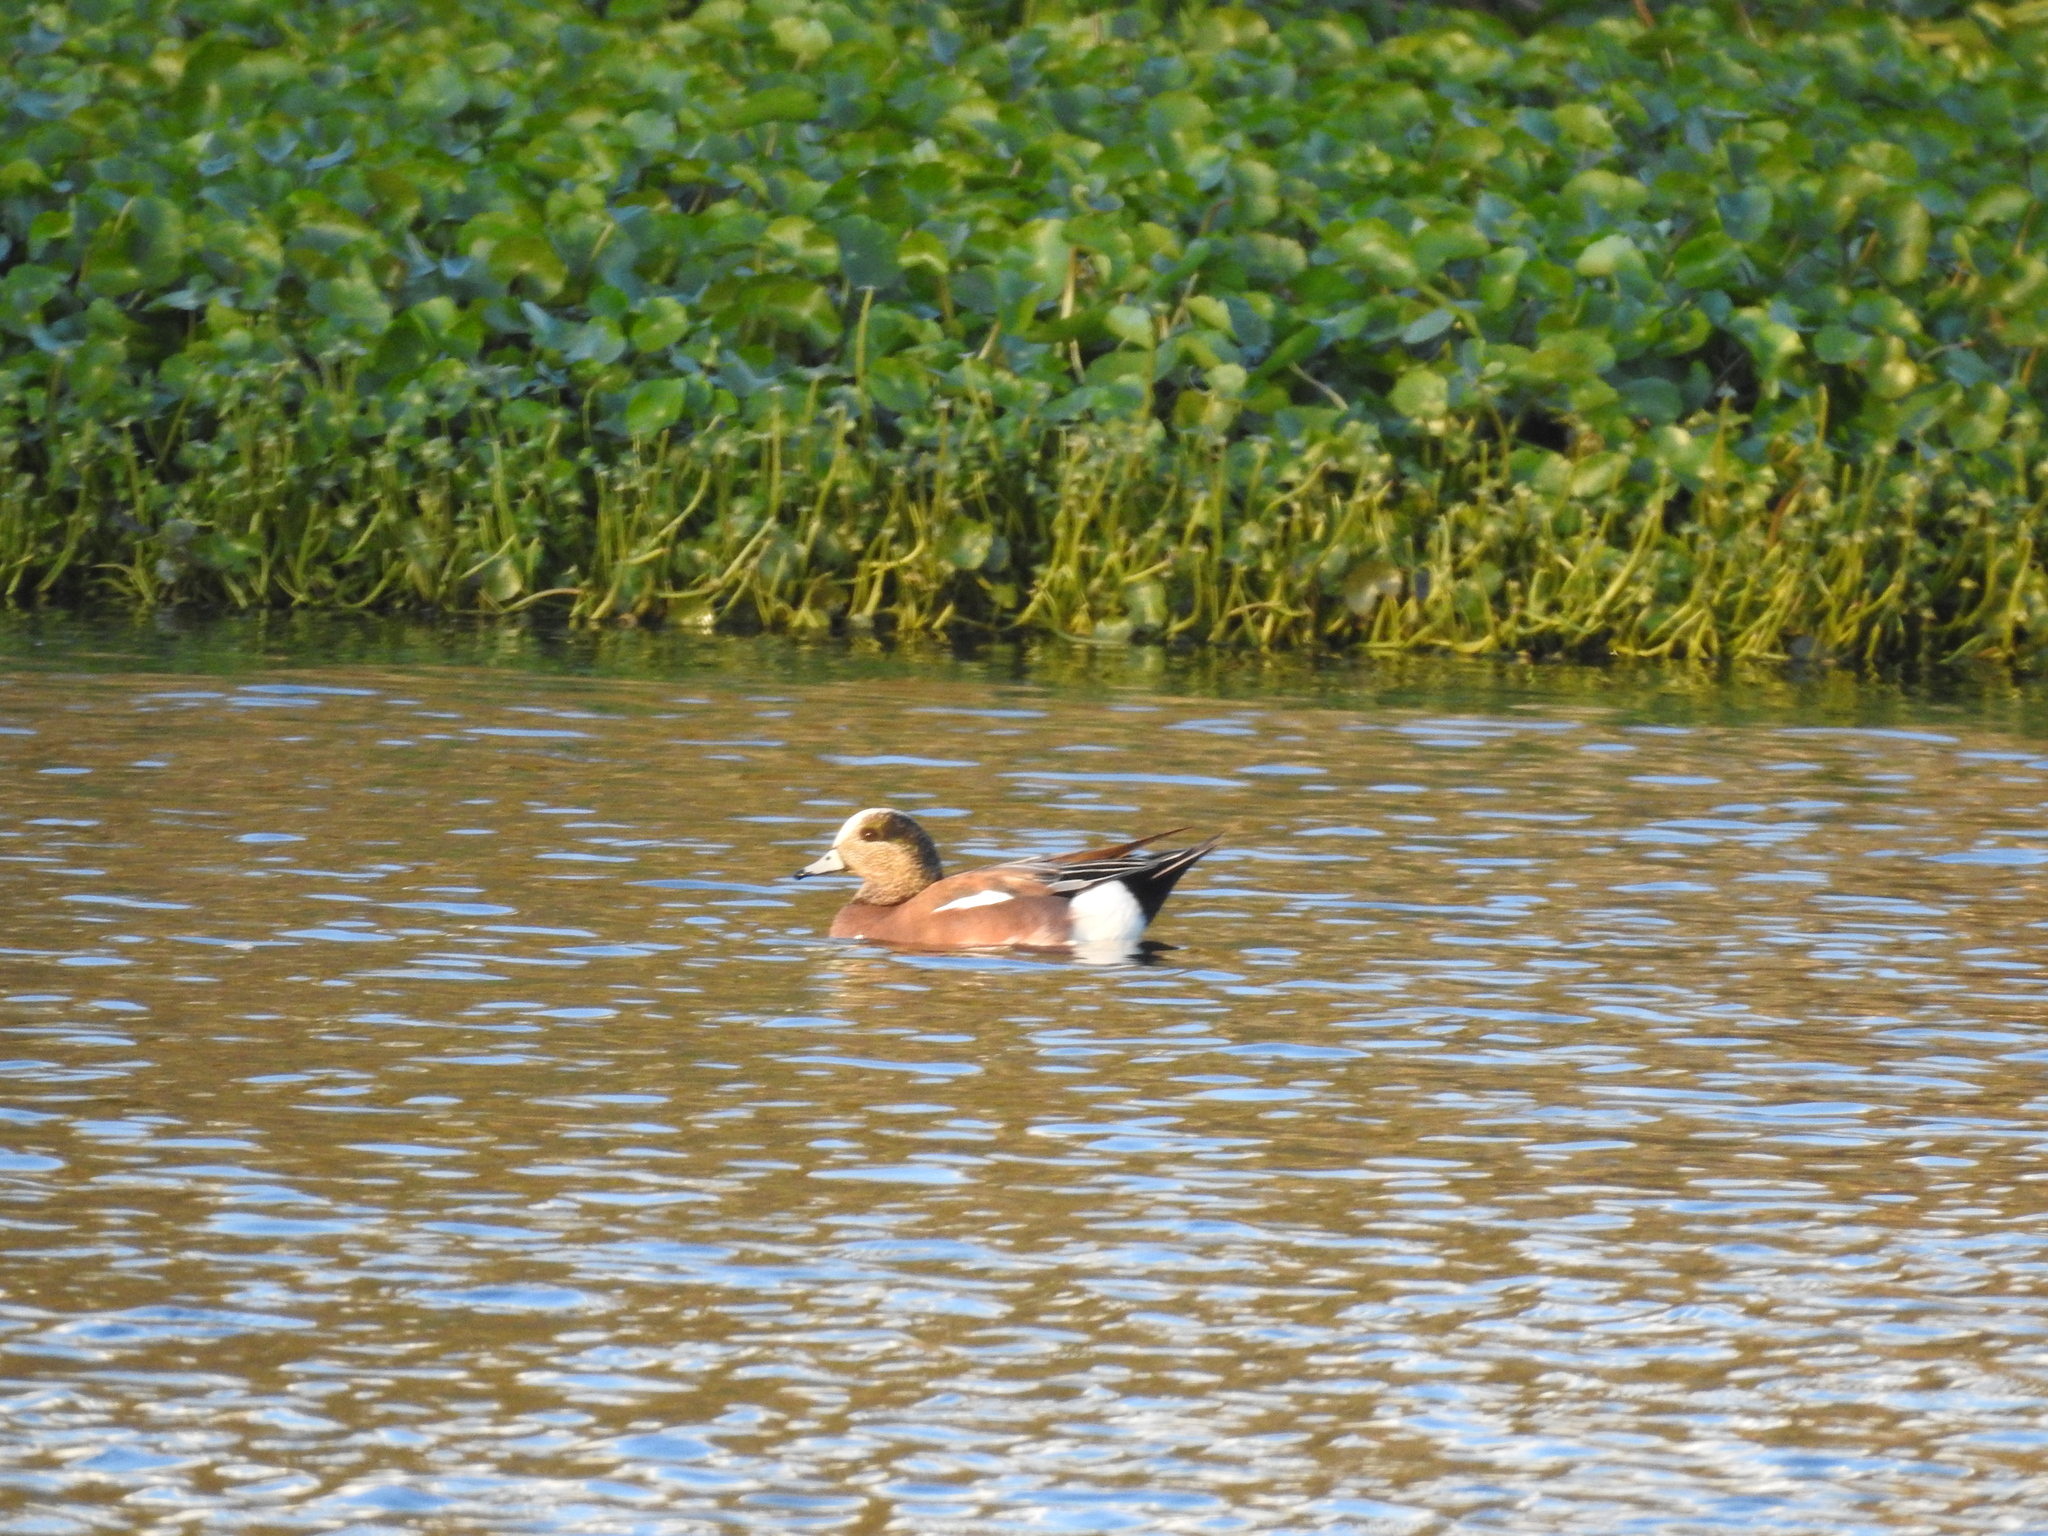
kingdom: Animalia
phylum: Chordata
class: Aves
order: Anseriformes
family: Anatidae
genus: Mareca
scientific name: Mareca americana
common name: American wigeon
